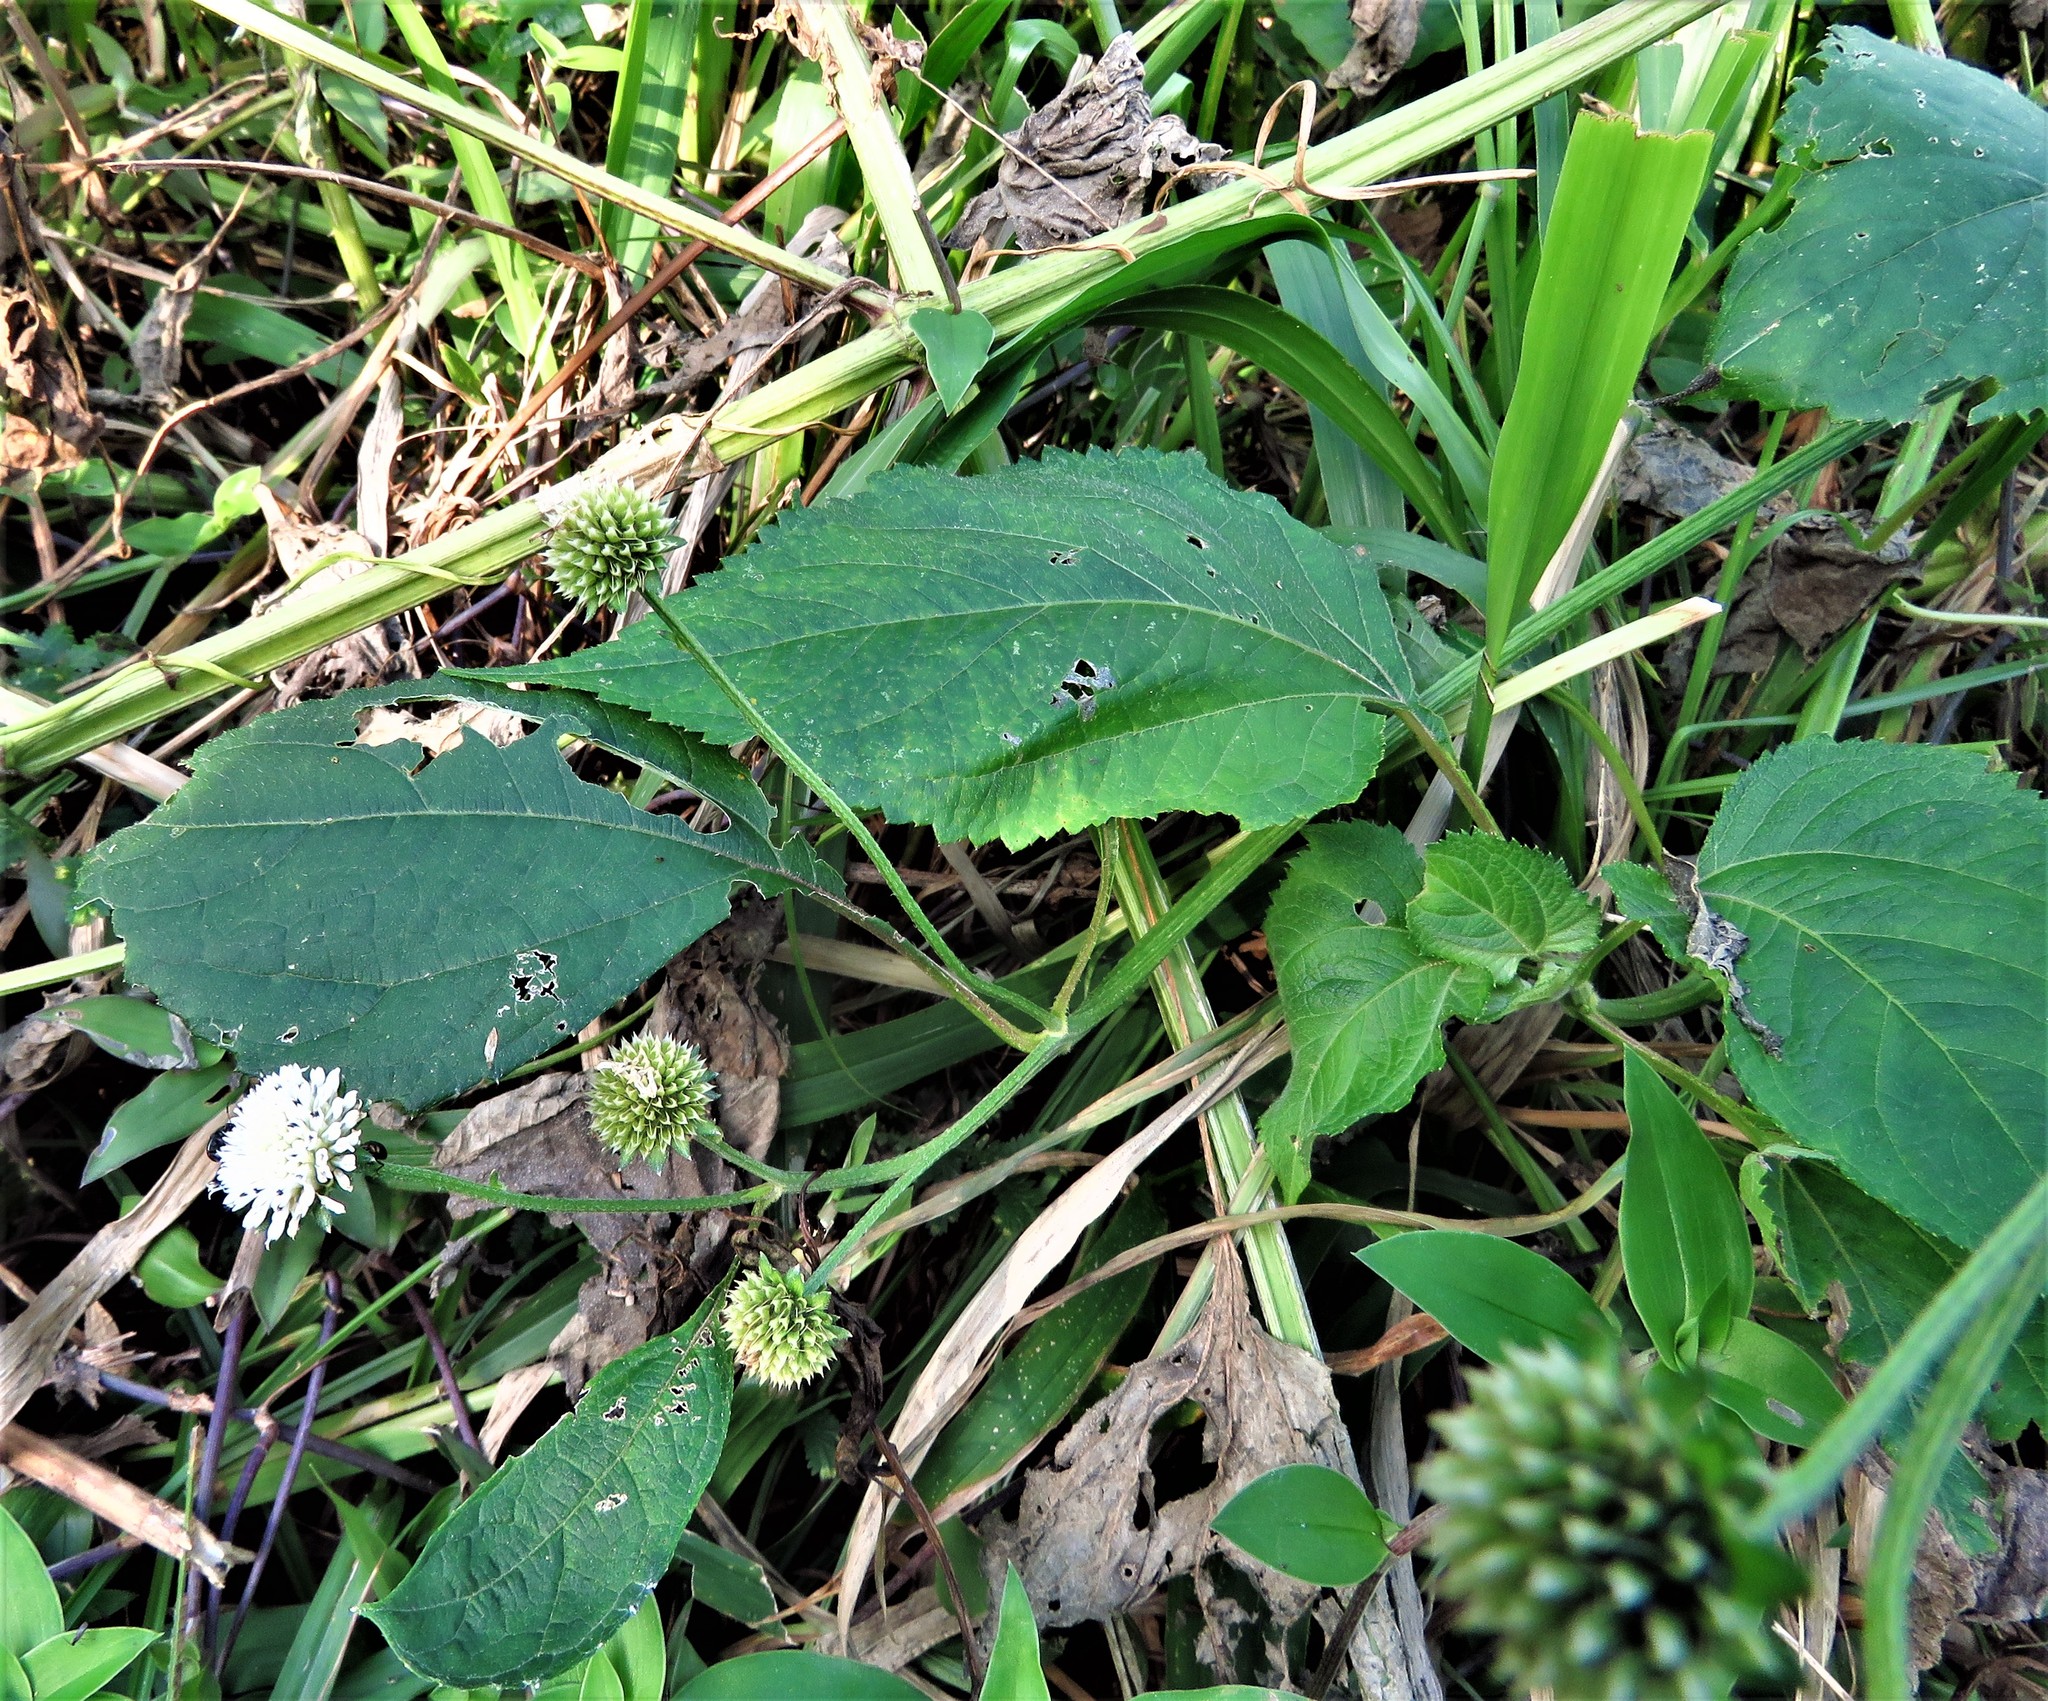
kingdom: Plantae
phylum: Tracheophyta
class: Magnoliopsida
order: Asterales
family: Asteraceae
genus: Melanthera
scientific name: Melanthera nivea
